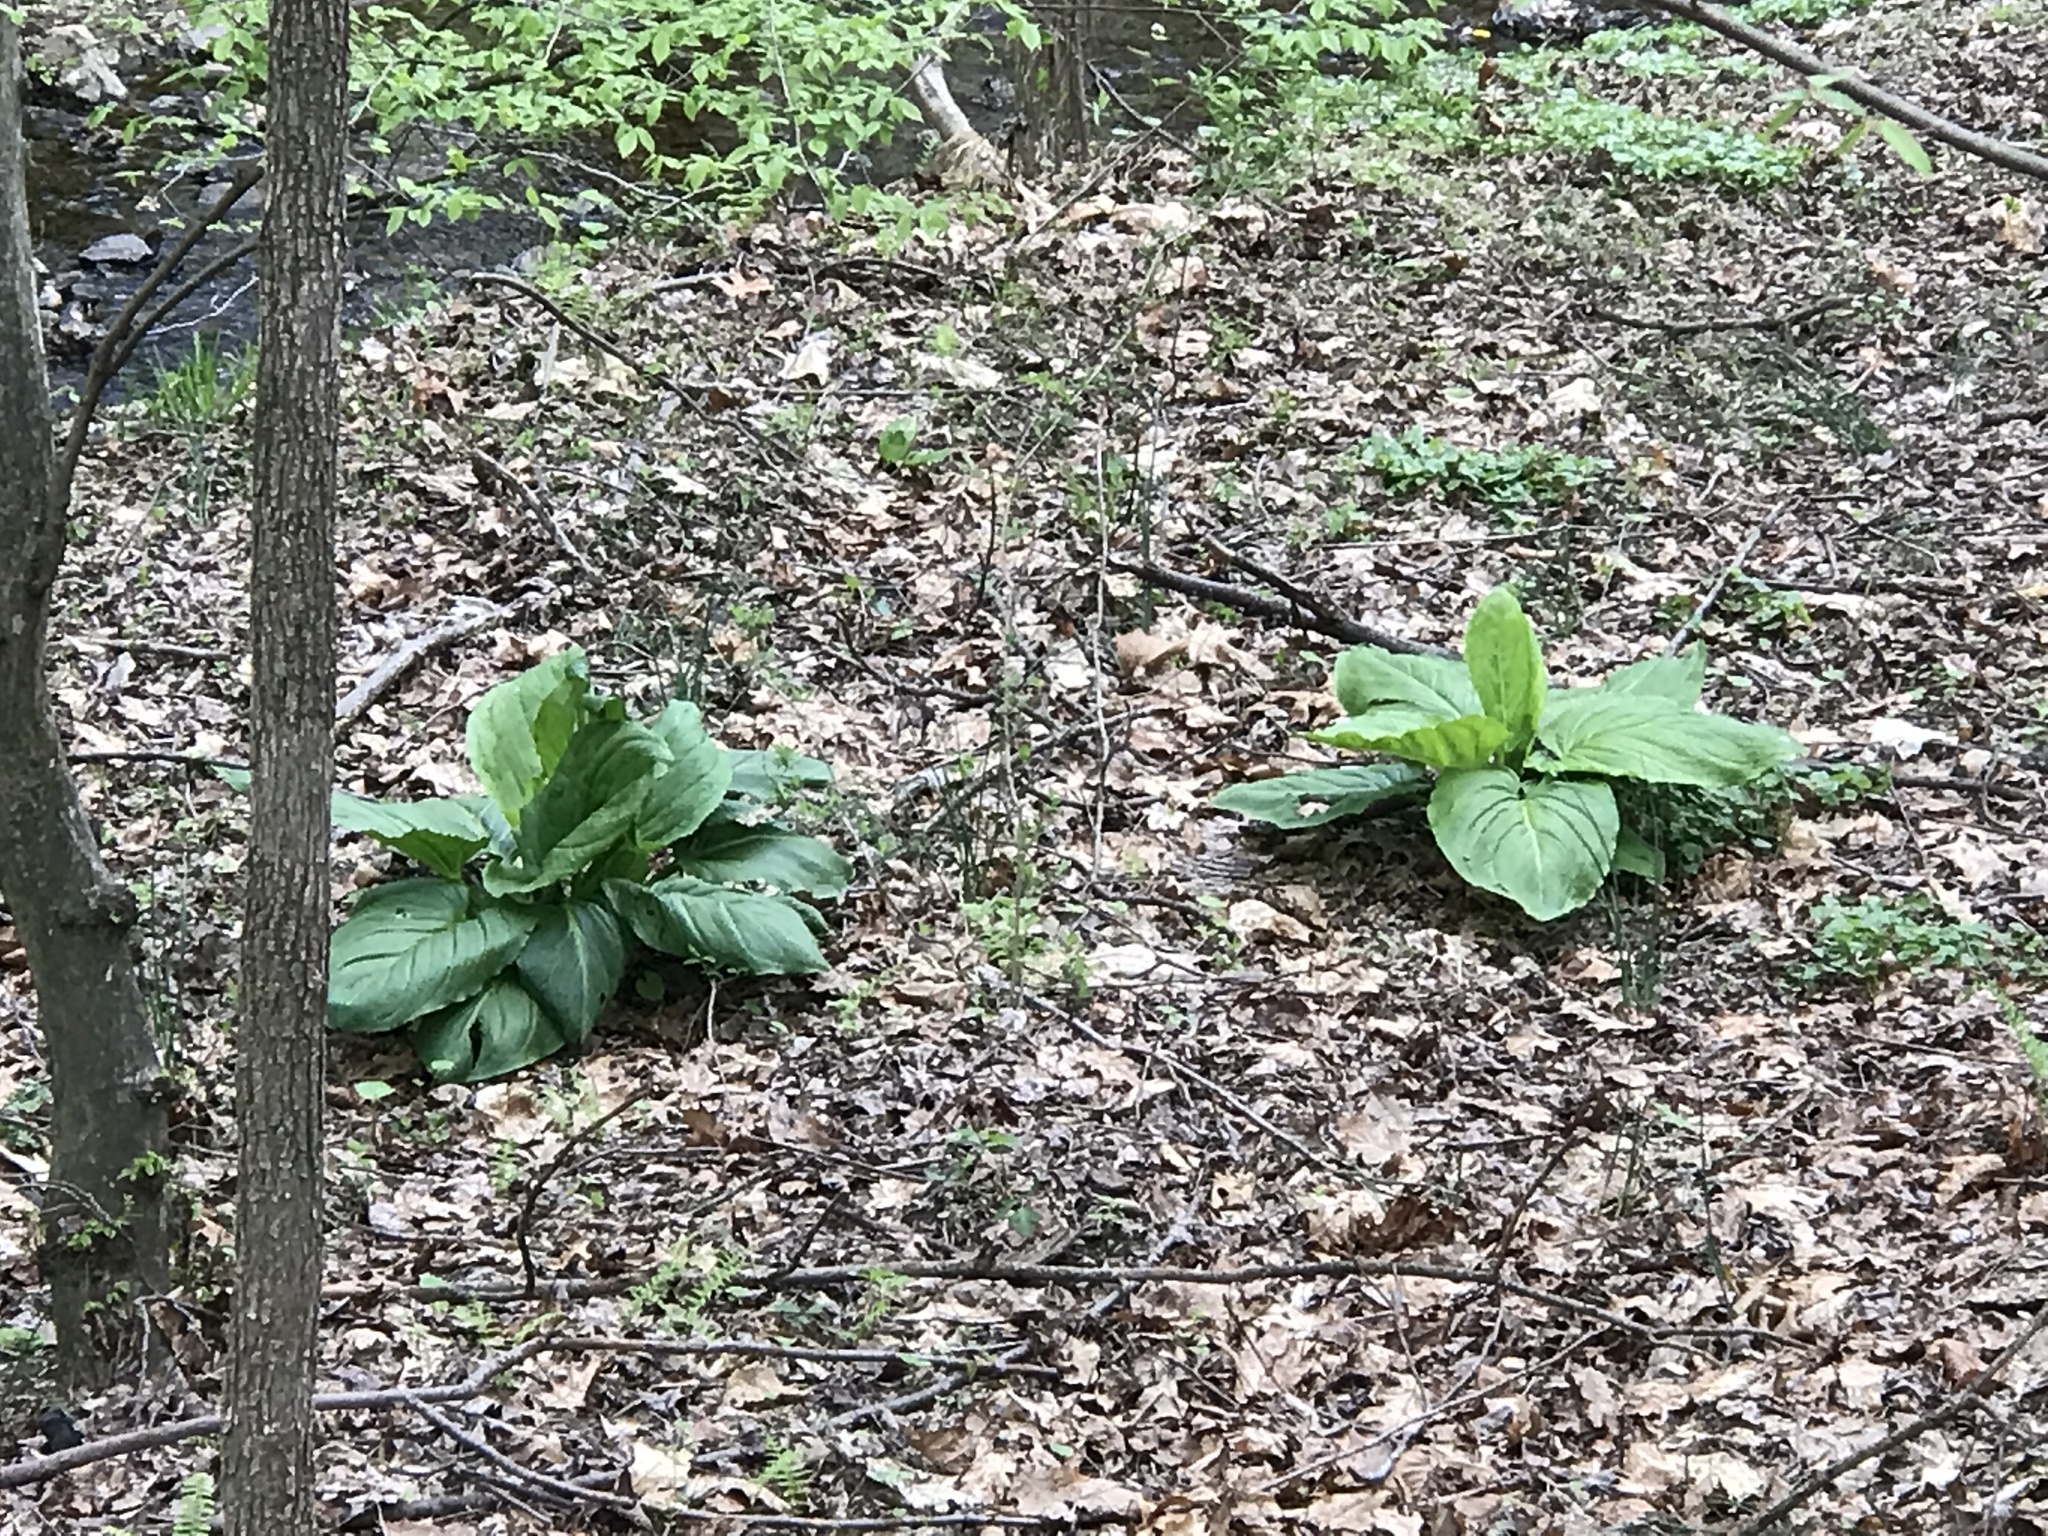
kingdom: Plantae
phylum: Tracheophyta
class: Liliopsida
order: Alismatales
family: Araceae
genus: Symplocarpus
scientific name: Symplocarpus foetidus
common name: Eastern skunk cabbage
